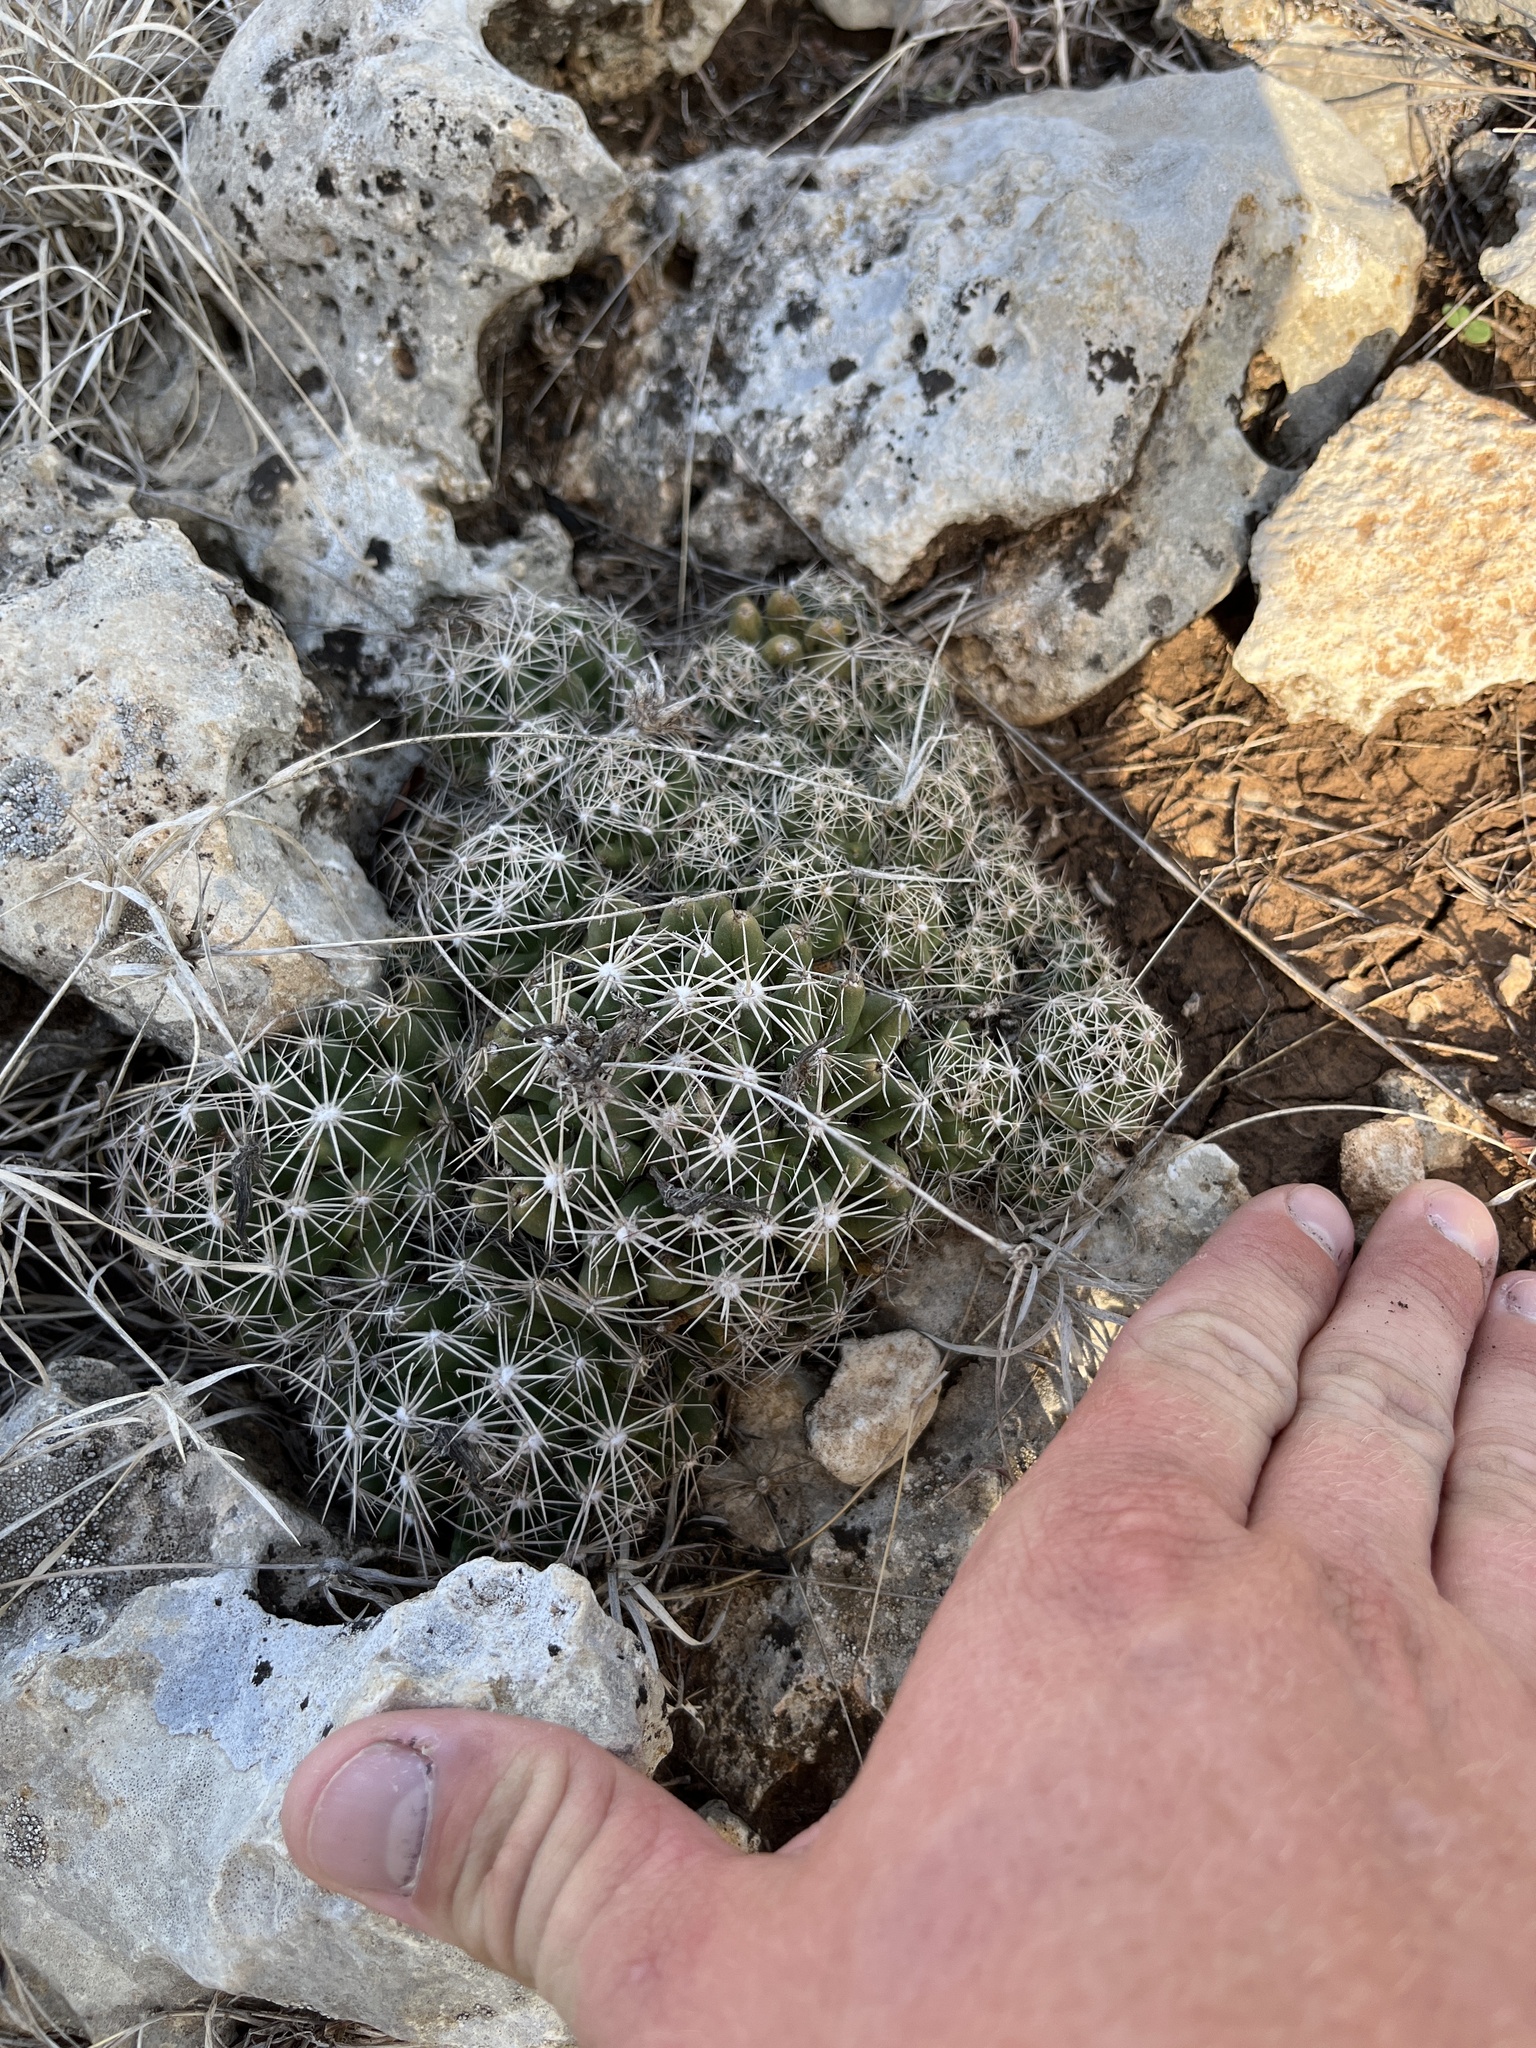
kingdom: Plantae
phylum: Tracheophyta
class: Magnoliopsida
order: Caryophyllales
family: Cactaceae
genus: Coryphantha
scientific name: Coryphantha sulcata
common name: Finger cactus
